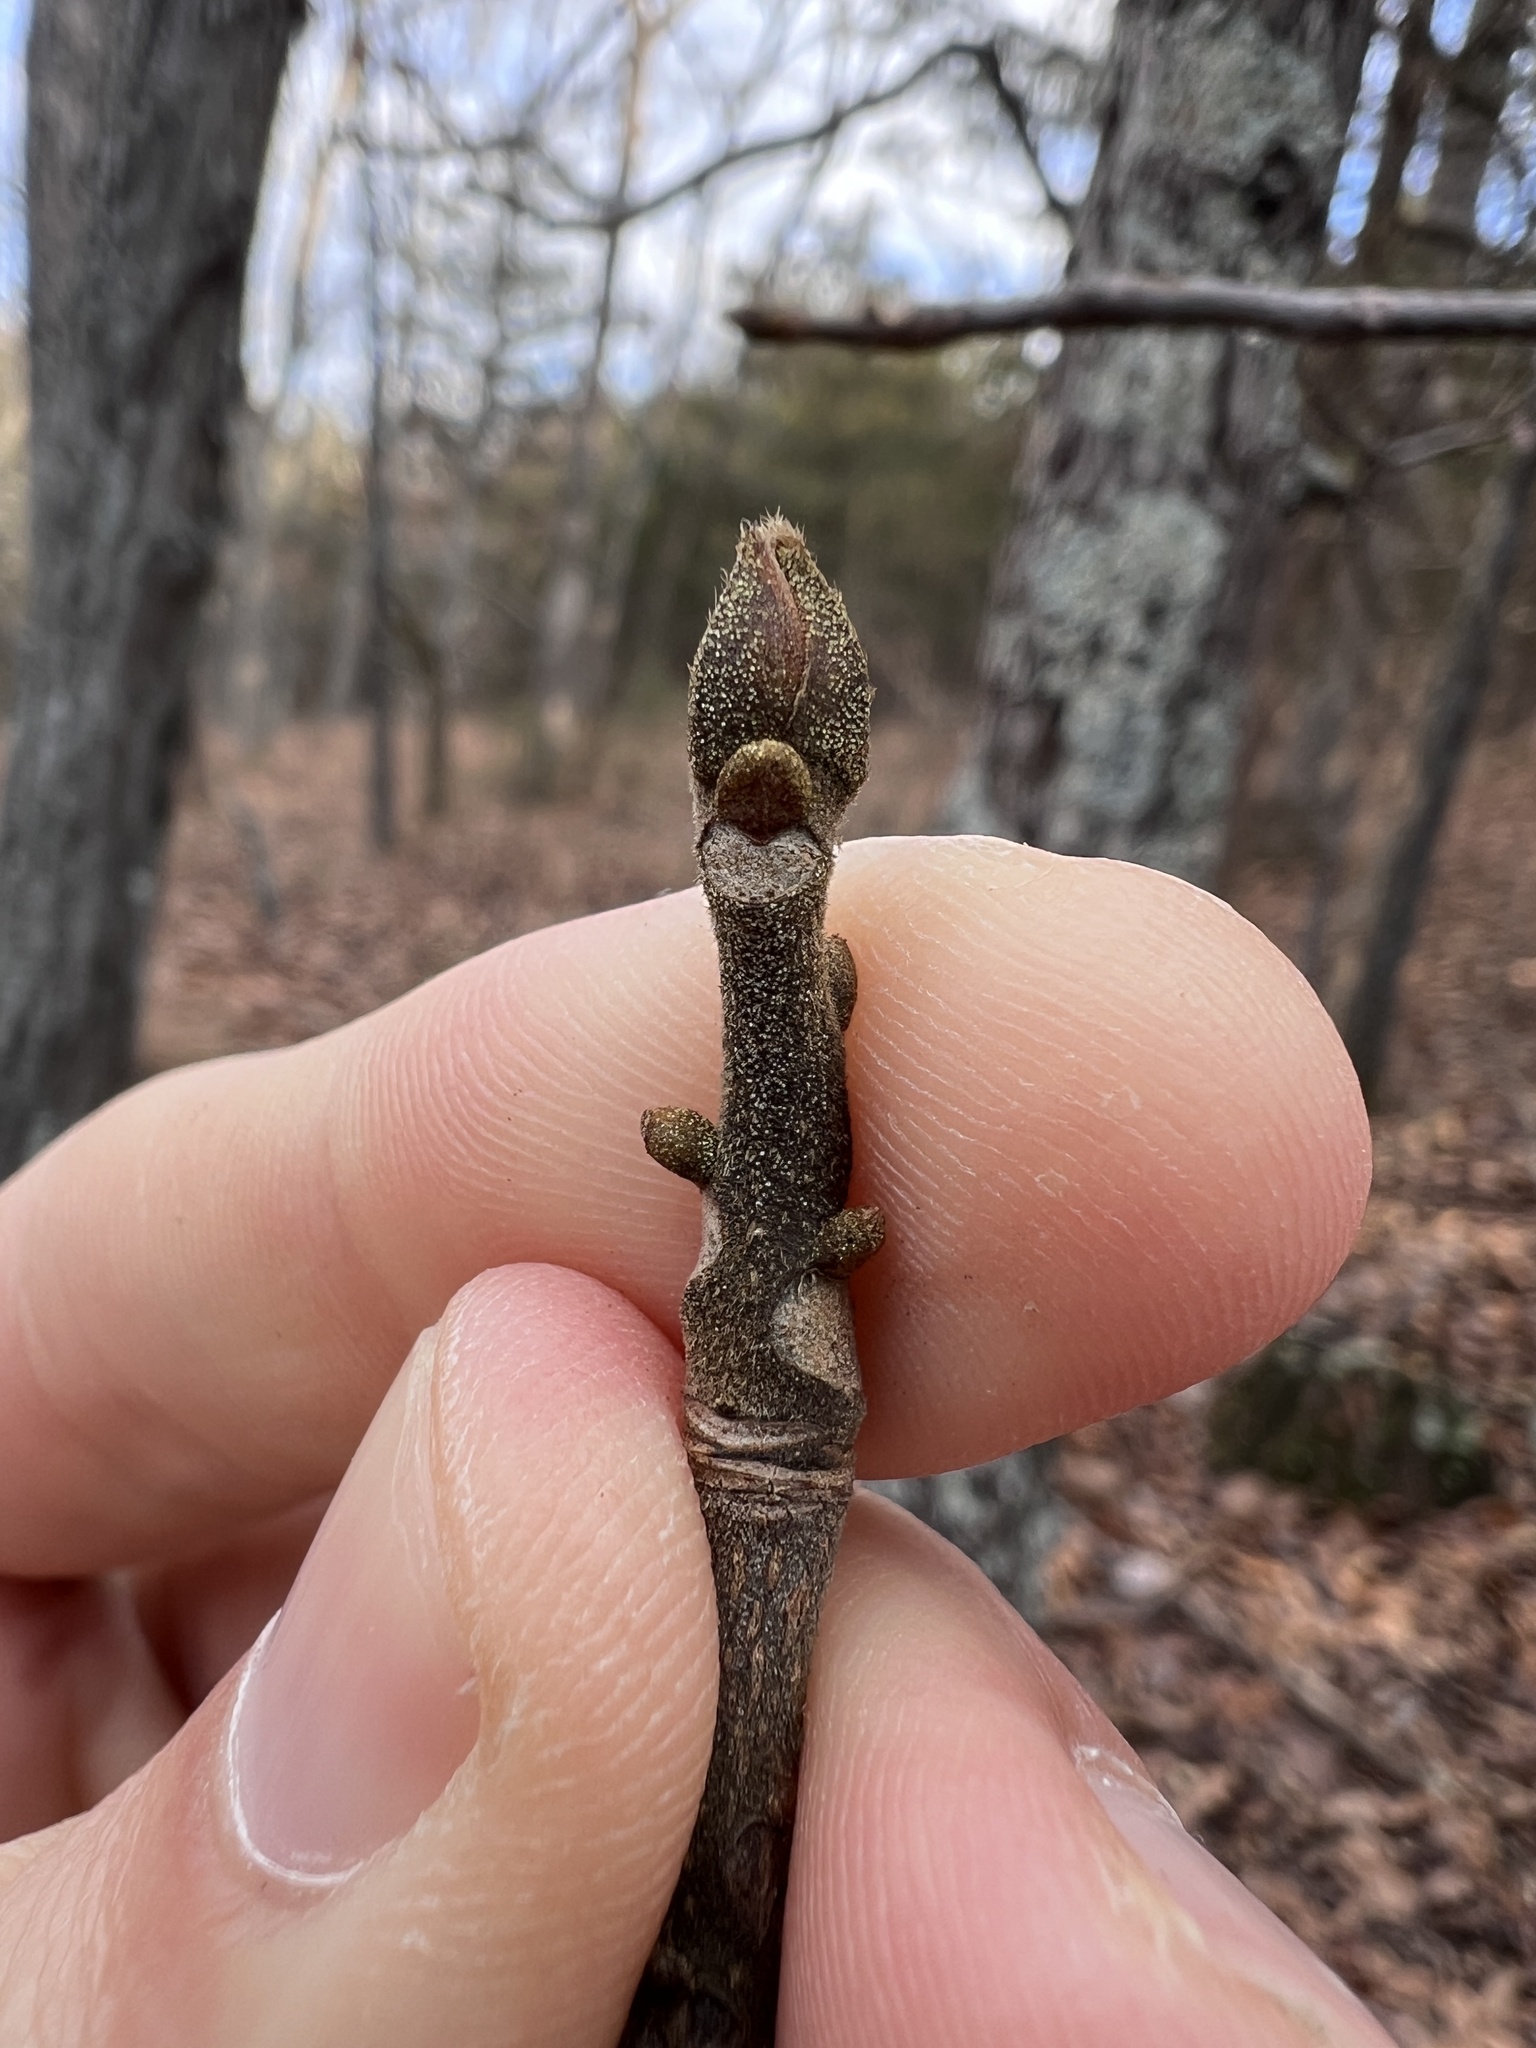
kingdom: Plantae
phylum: Tracheophyta
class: Magnoliopsida
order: Fagales
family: Juglandaceae
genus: Carya
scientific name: Carya texana
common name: Black hickory
